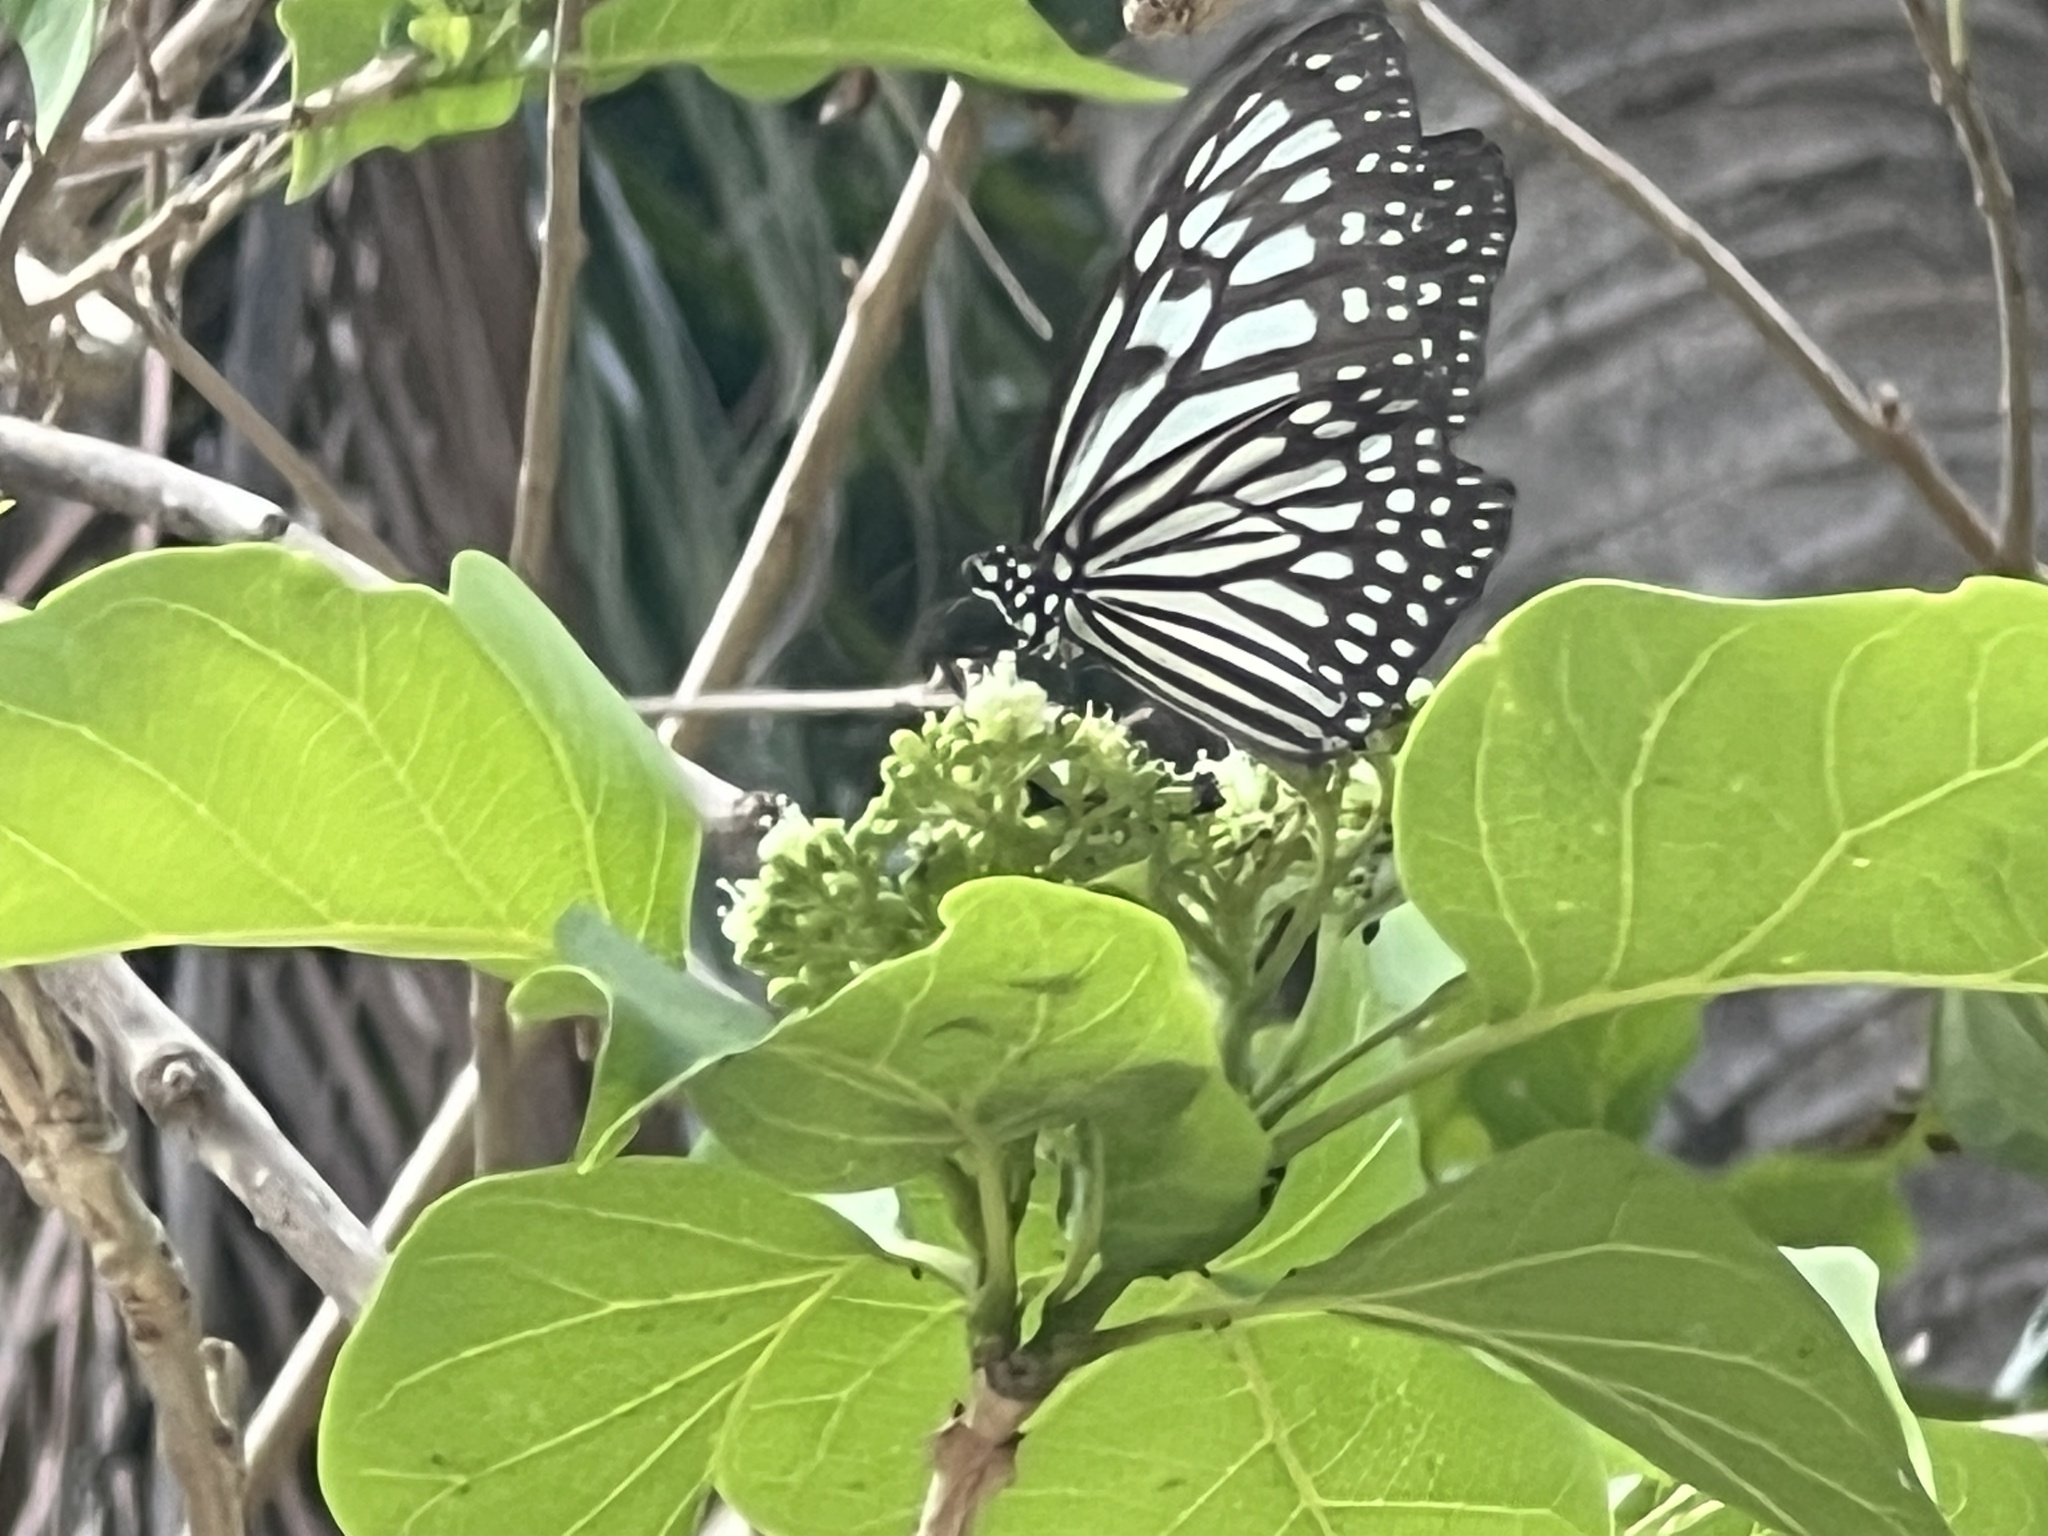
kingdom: Animalia
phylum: Arthropoda
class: Insecta
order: Lepidoptera
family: Nymphalidae
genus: Ideopsis
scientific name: Ideopsis juventa
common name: Grey glassy tiger
